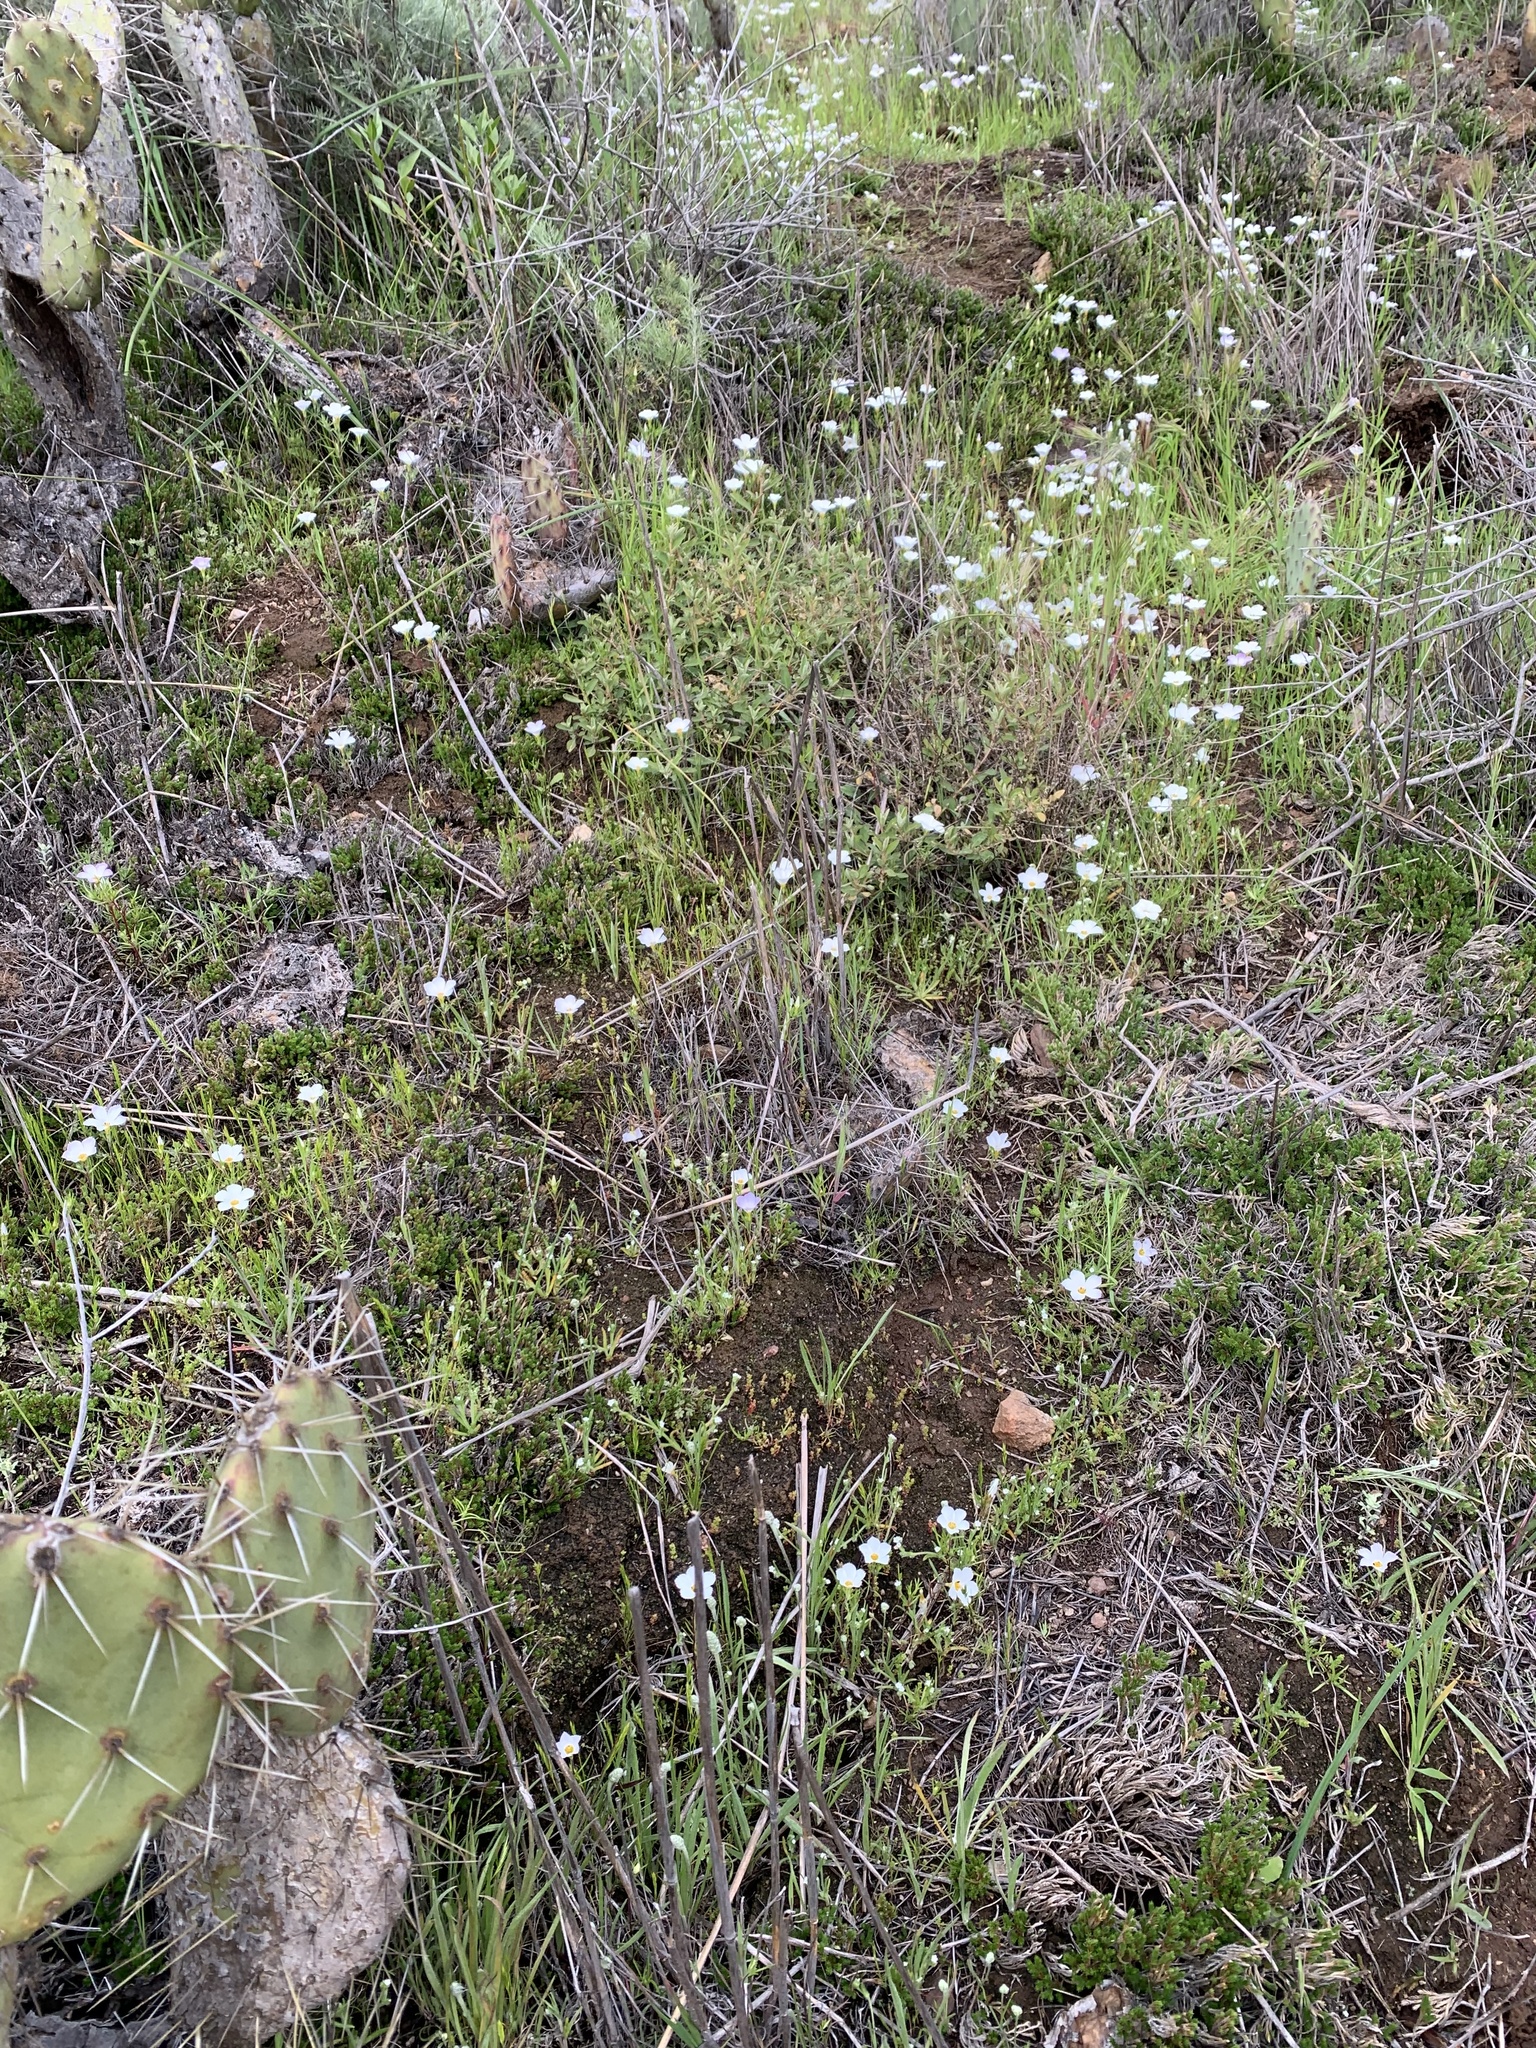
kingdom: Plantae
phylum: Tracheophyta
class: Magnoliopsida
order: Ericales
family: Polemoniaceae
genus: Linanthus
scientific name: Linanthus dianthiflorus
